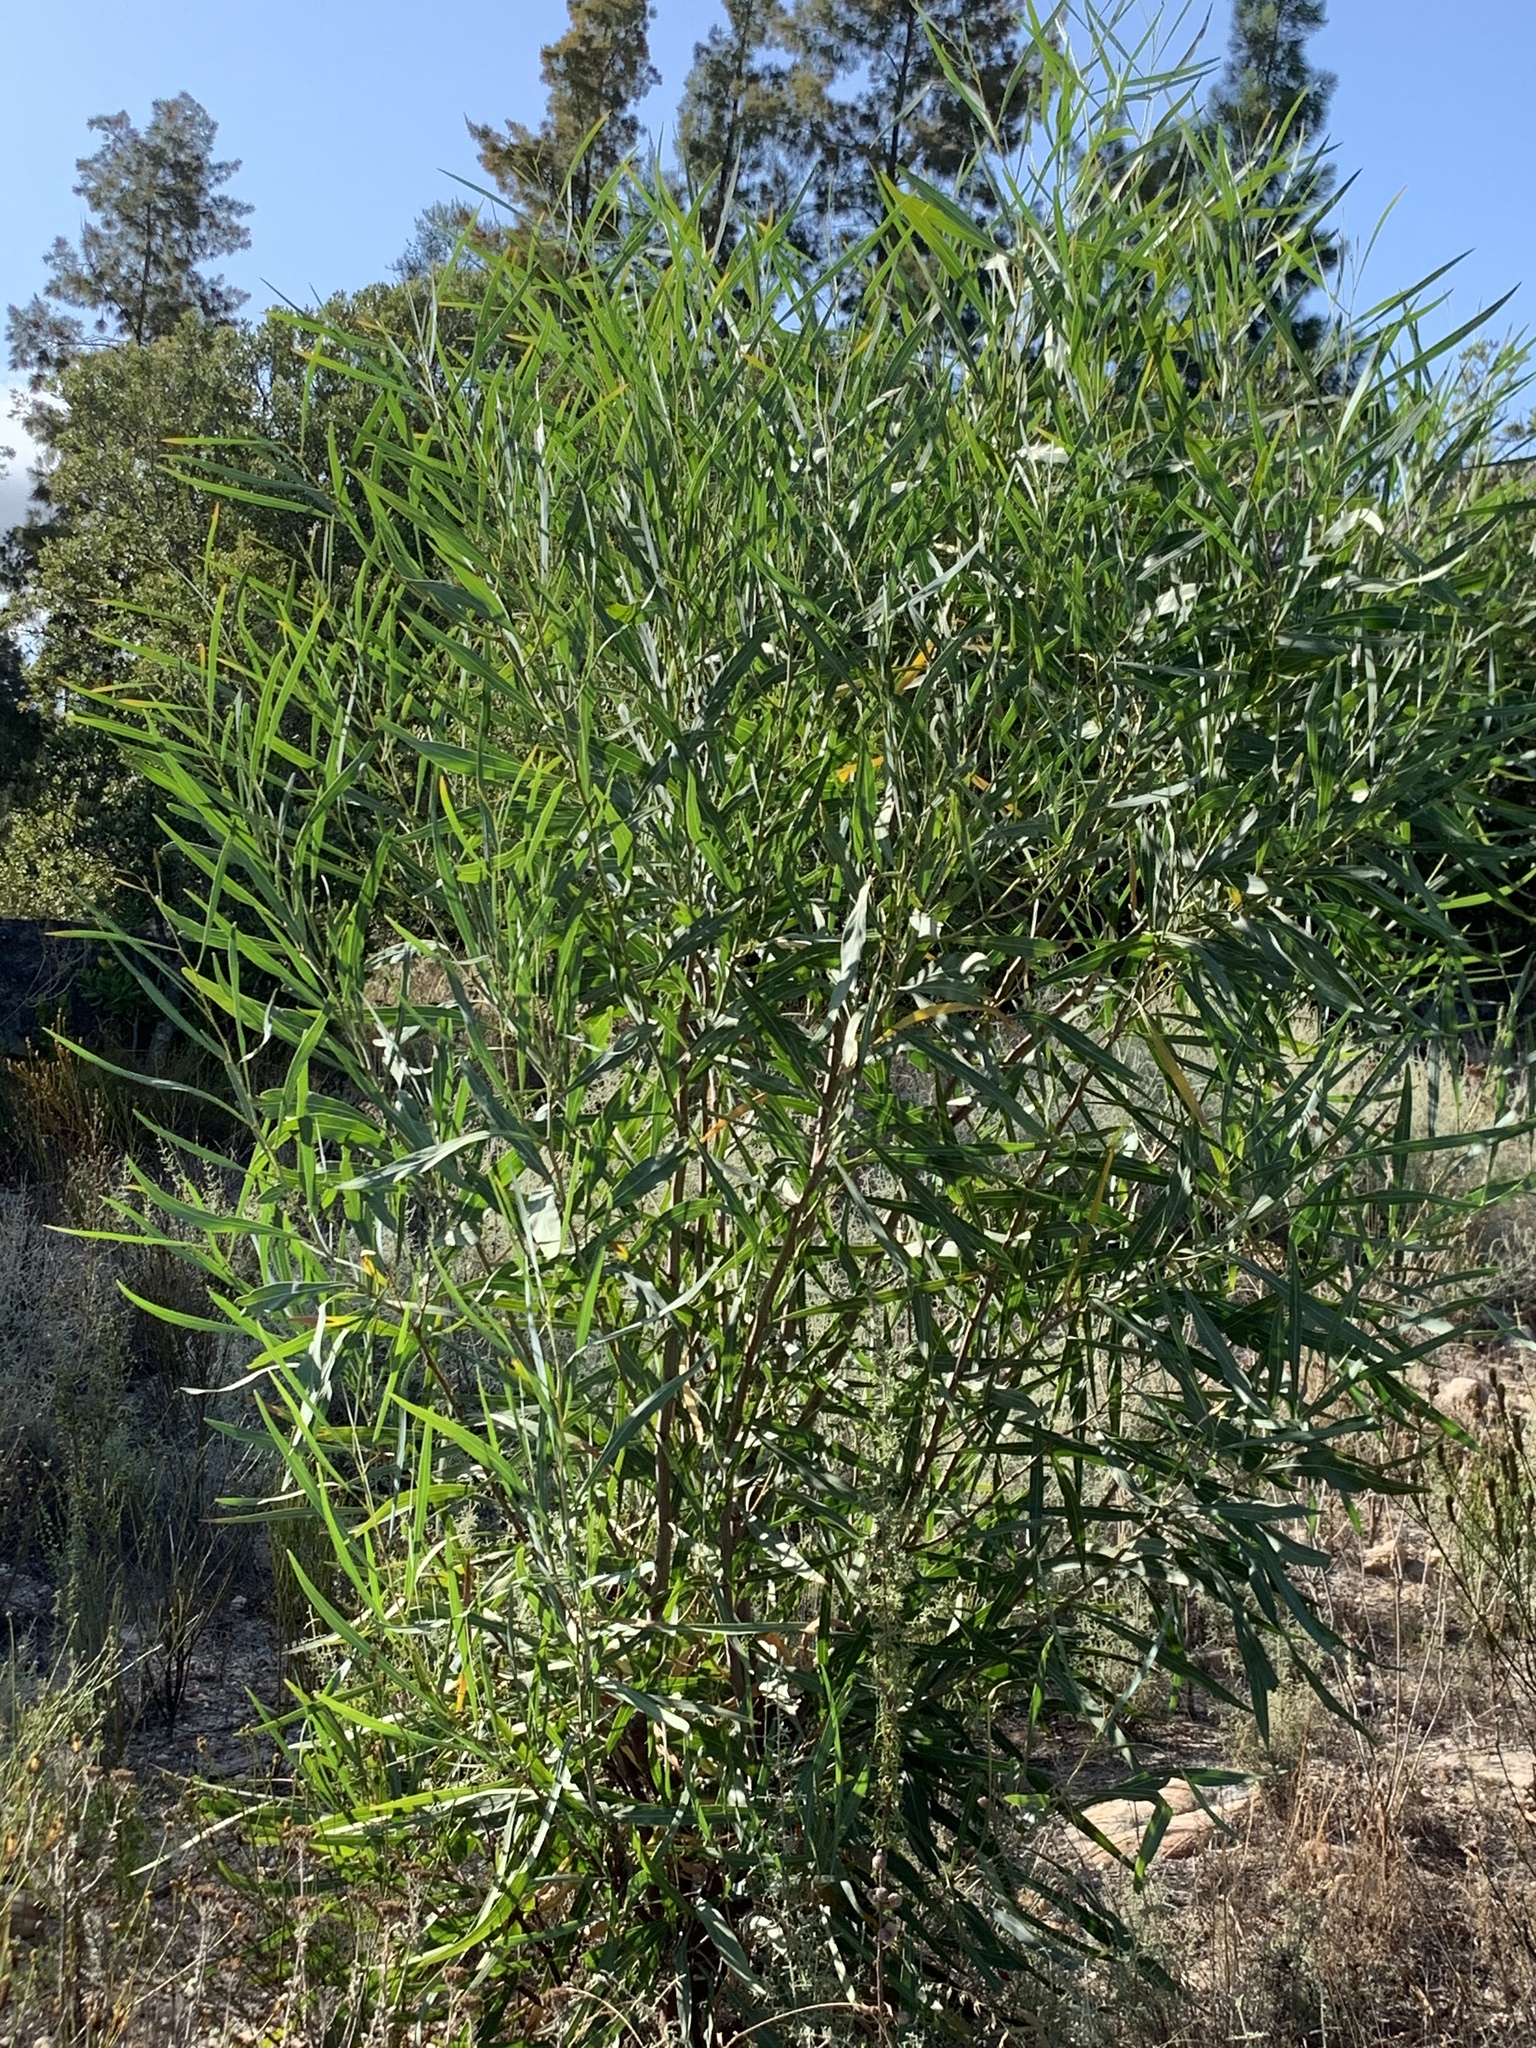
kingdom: Plantae
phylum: Tracheophyta
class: Magnoliopsida
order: Fabales
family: Fabaceae
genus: Acacia
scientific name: Acacia saligna
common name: Orange wattle
